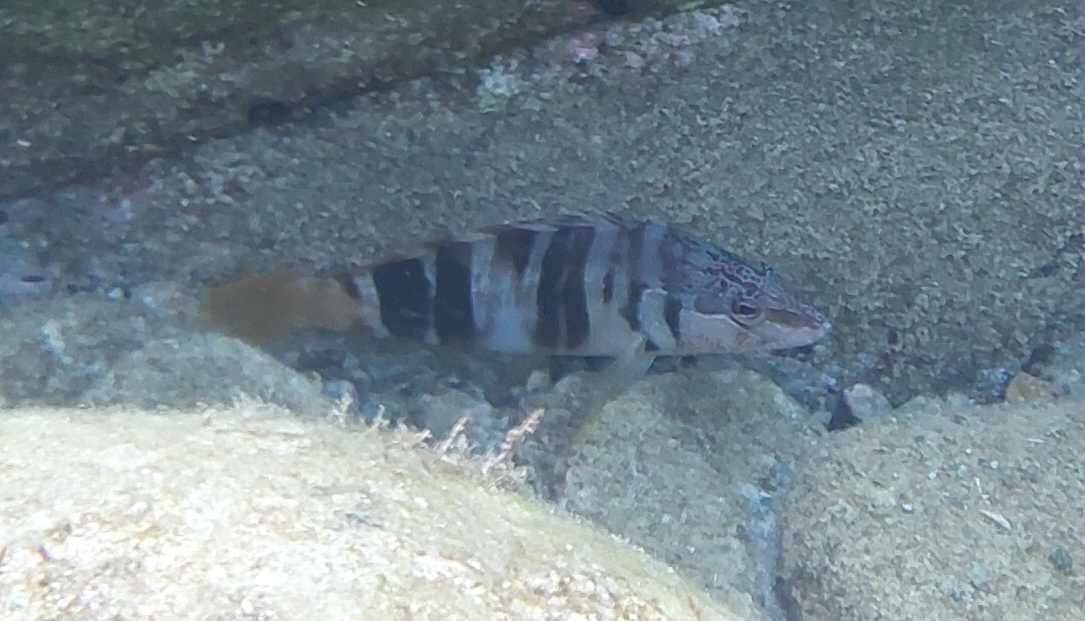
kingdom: Animalia
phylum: Chordata
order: Perciformes
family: Serranidae
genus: Serranus
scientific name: Serranus scriba
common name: Painted comber
